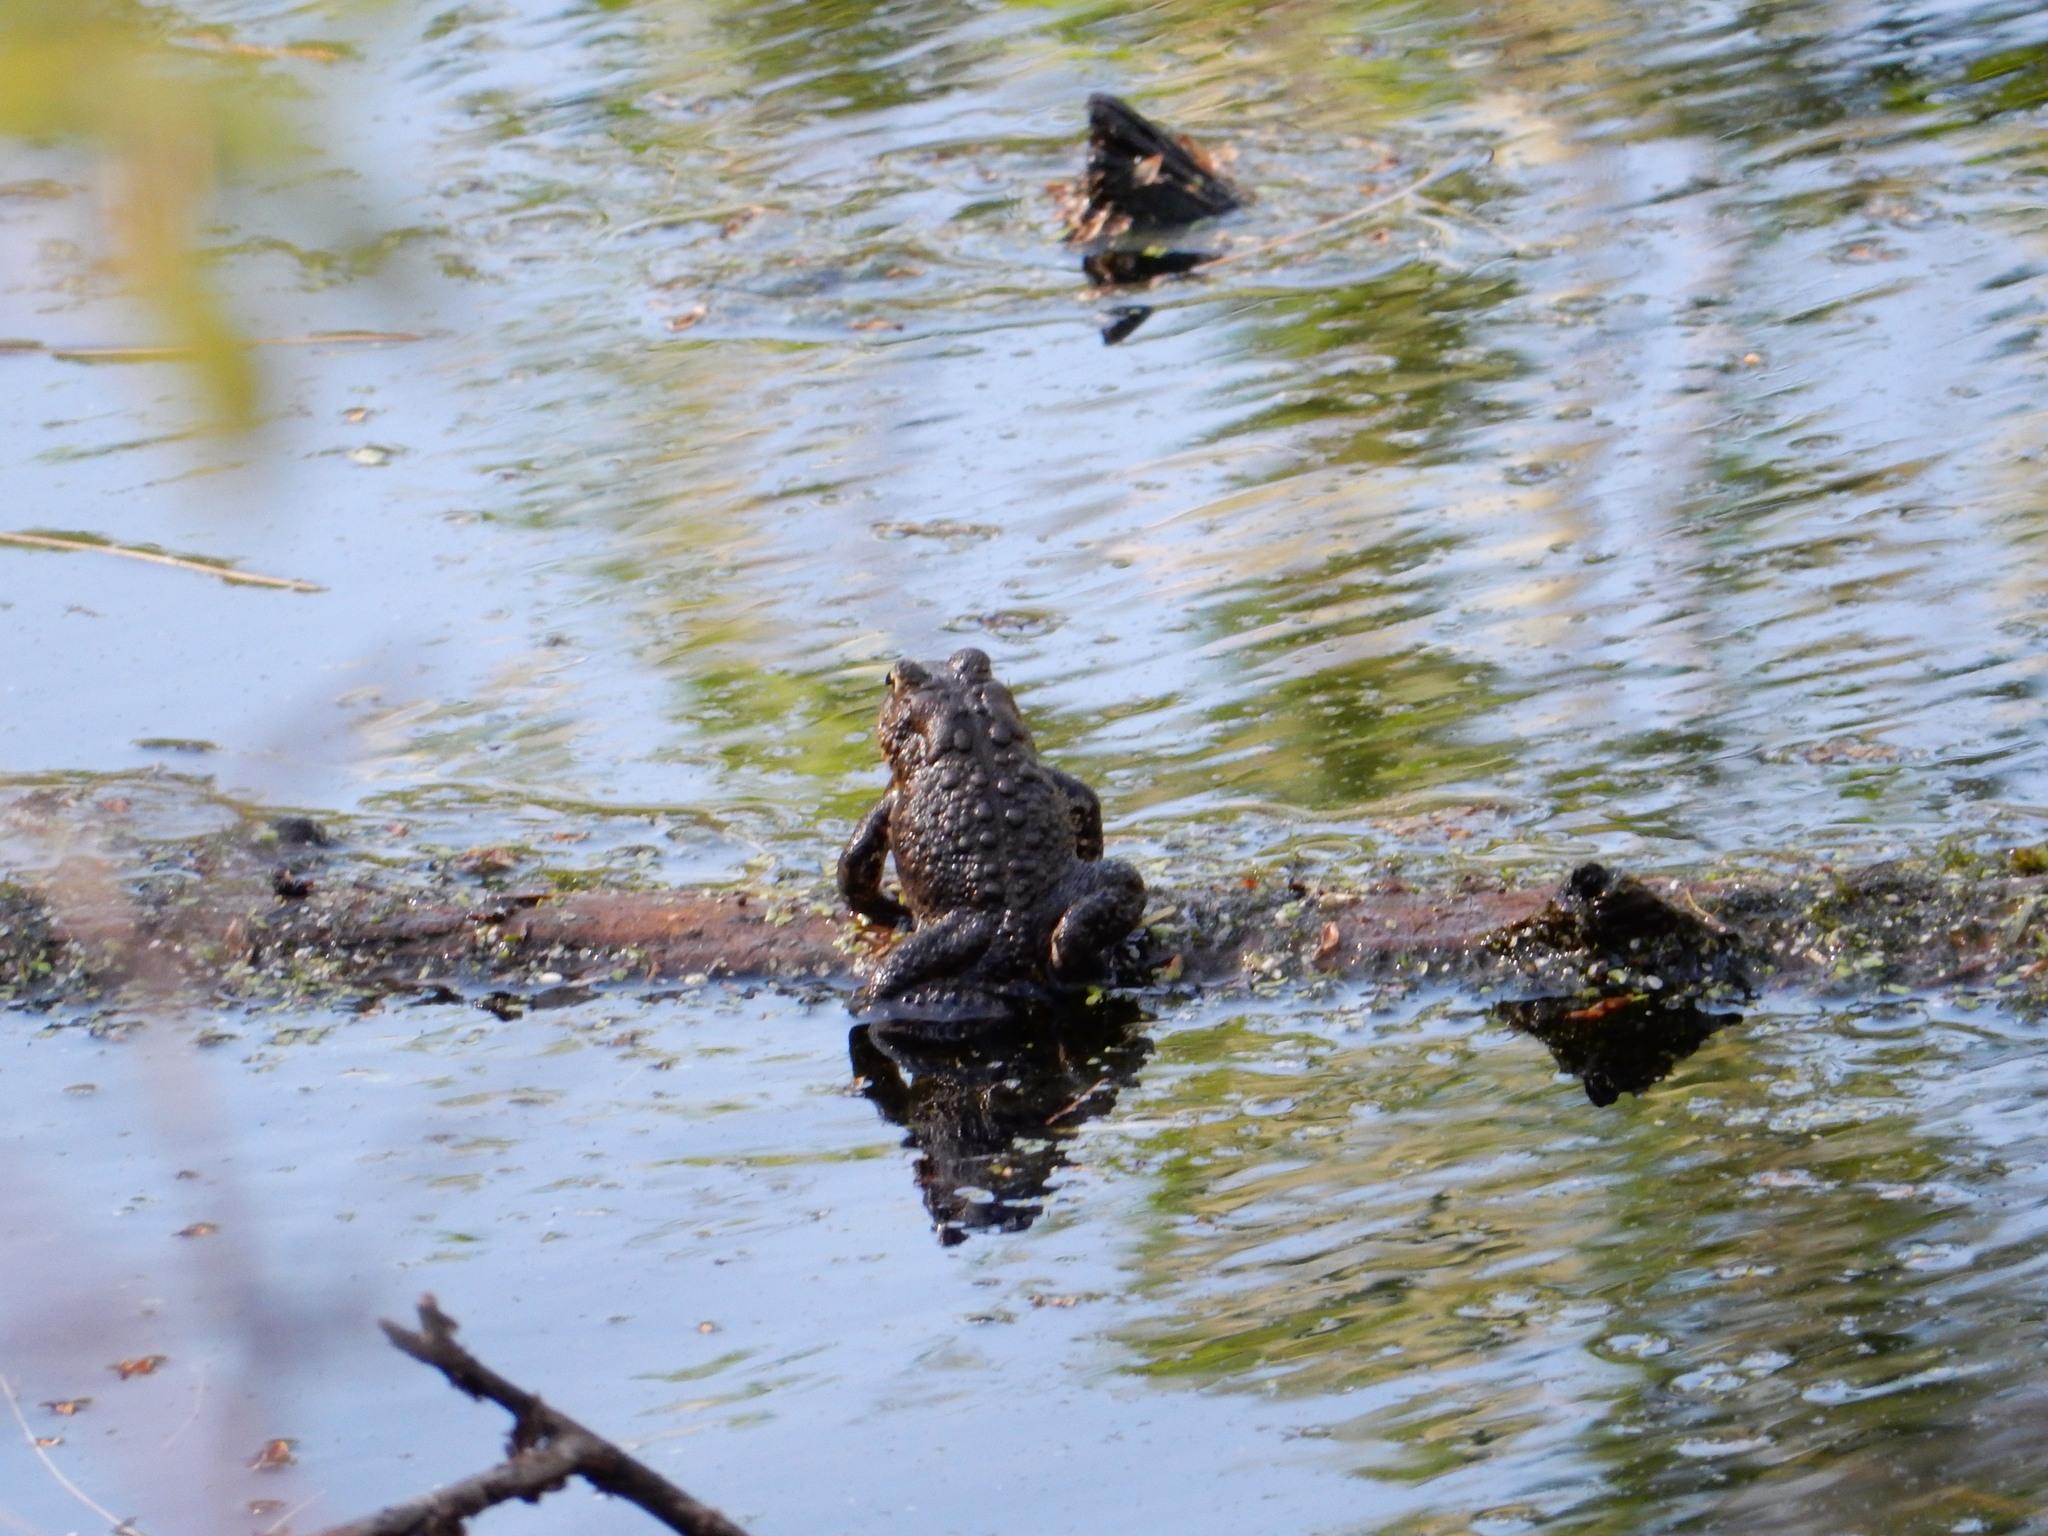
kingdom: Animalia
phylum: Chordata
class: Amphibia
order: Anura
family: Bufonidae
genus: Anaxyrus
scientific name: Anaxyrus americanus
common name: American toad
